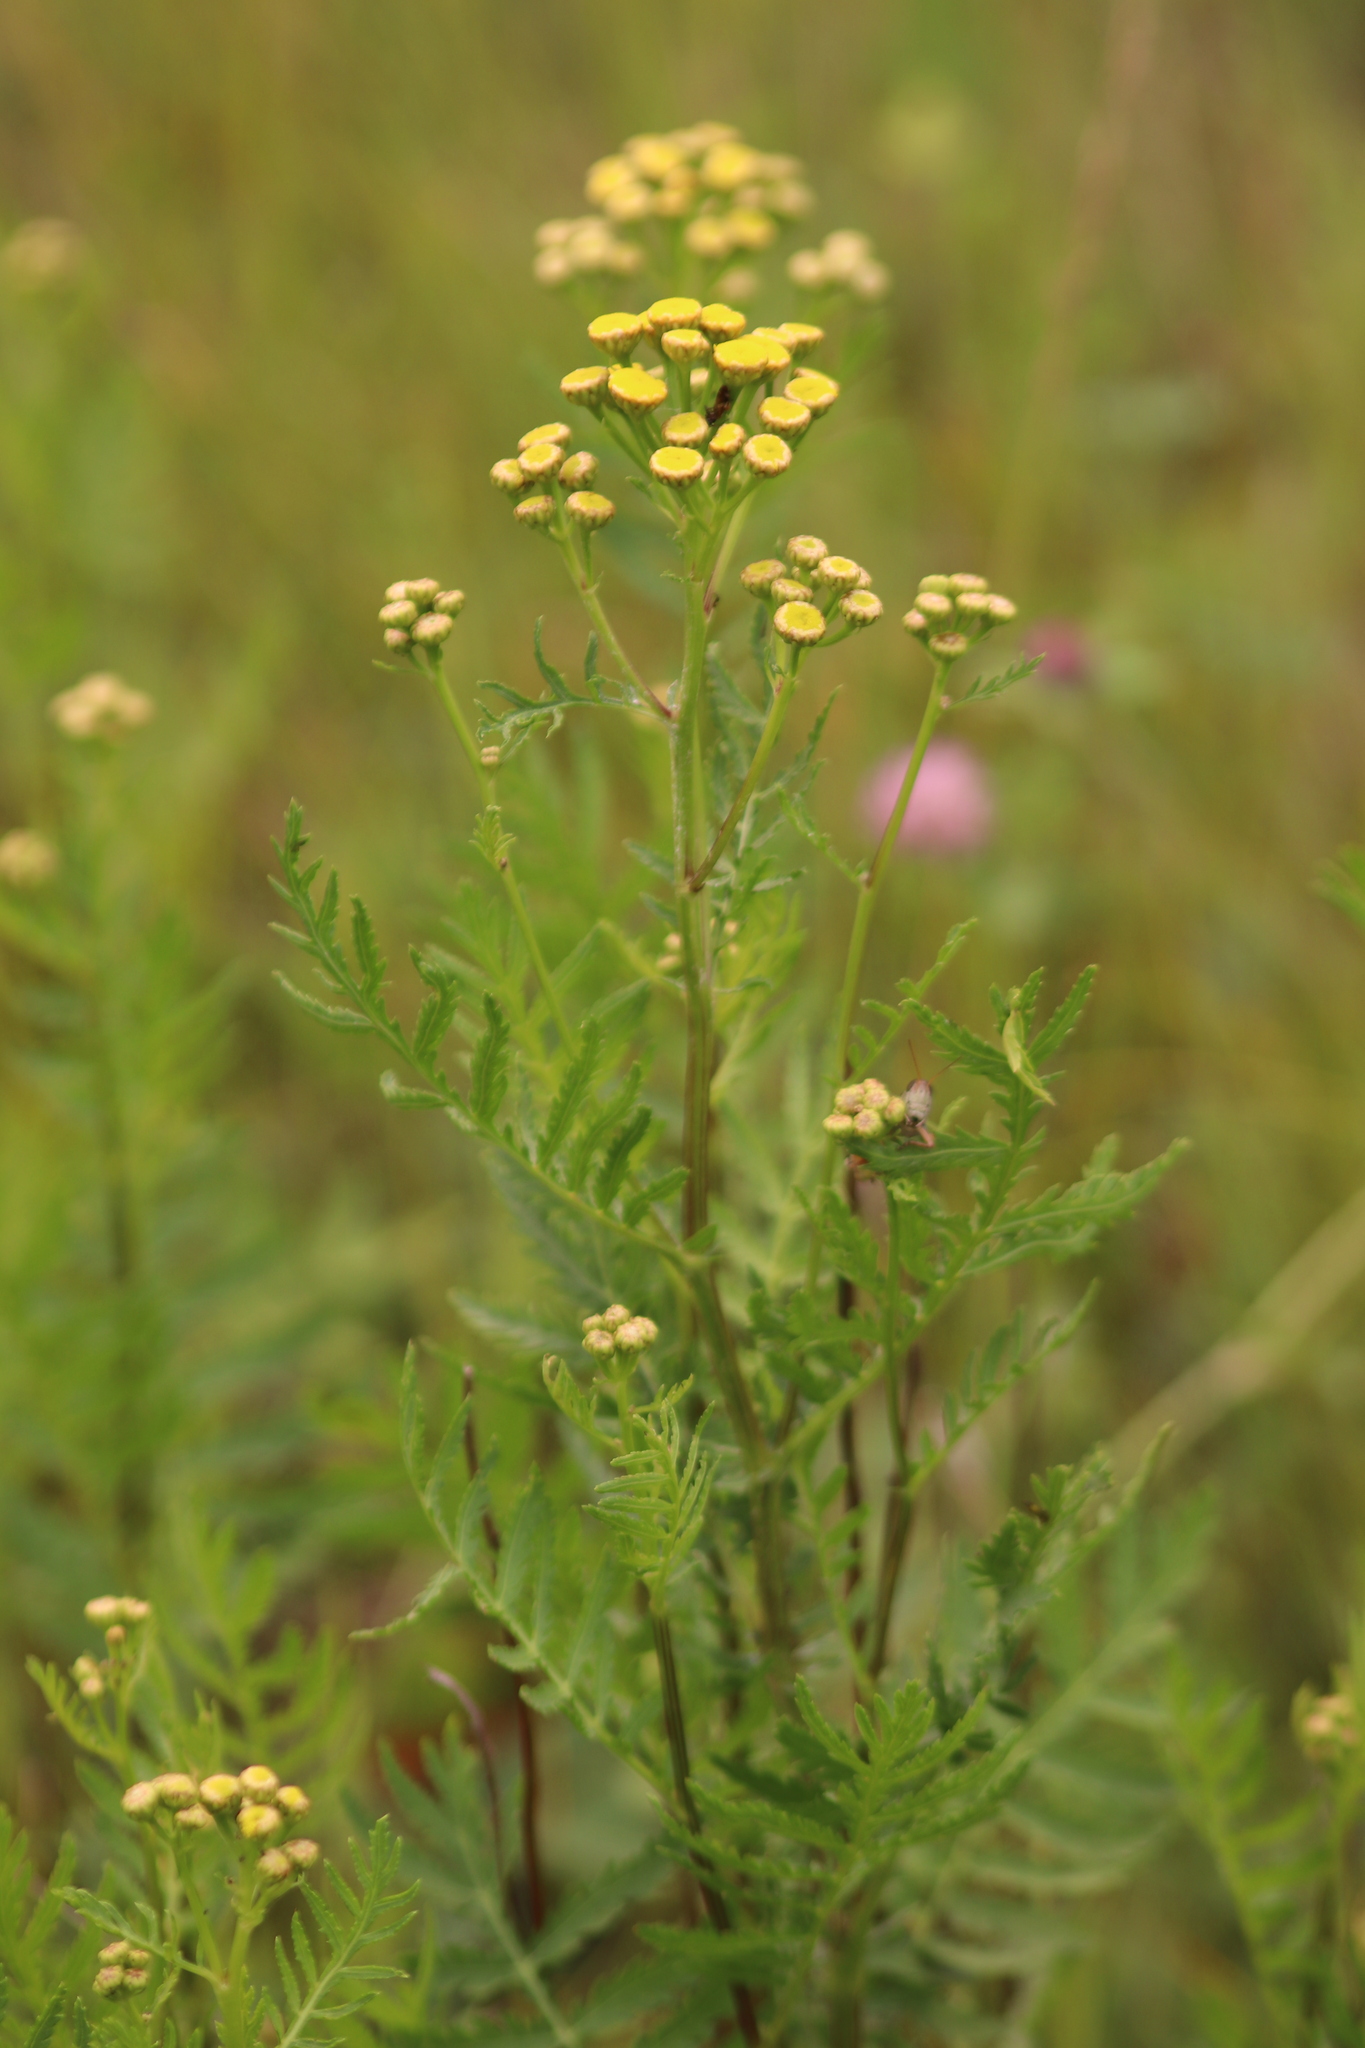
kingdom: Plantae
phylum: Tracheophyta
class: Magnoliopsida
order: Asterales
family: Asteraceae
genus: Tanacetum
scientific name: Tanacetum vulgare
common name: Common tansy
